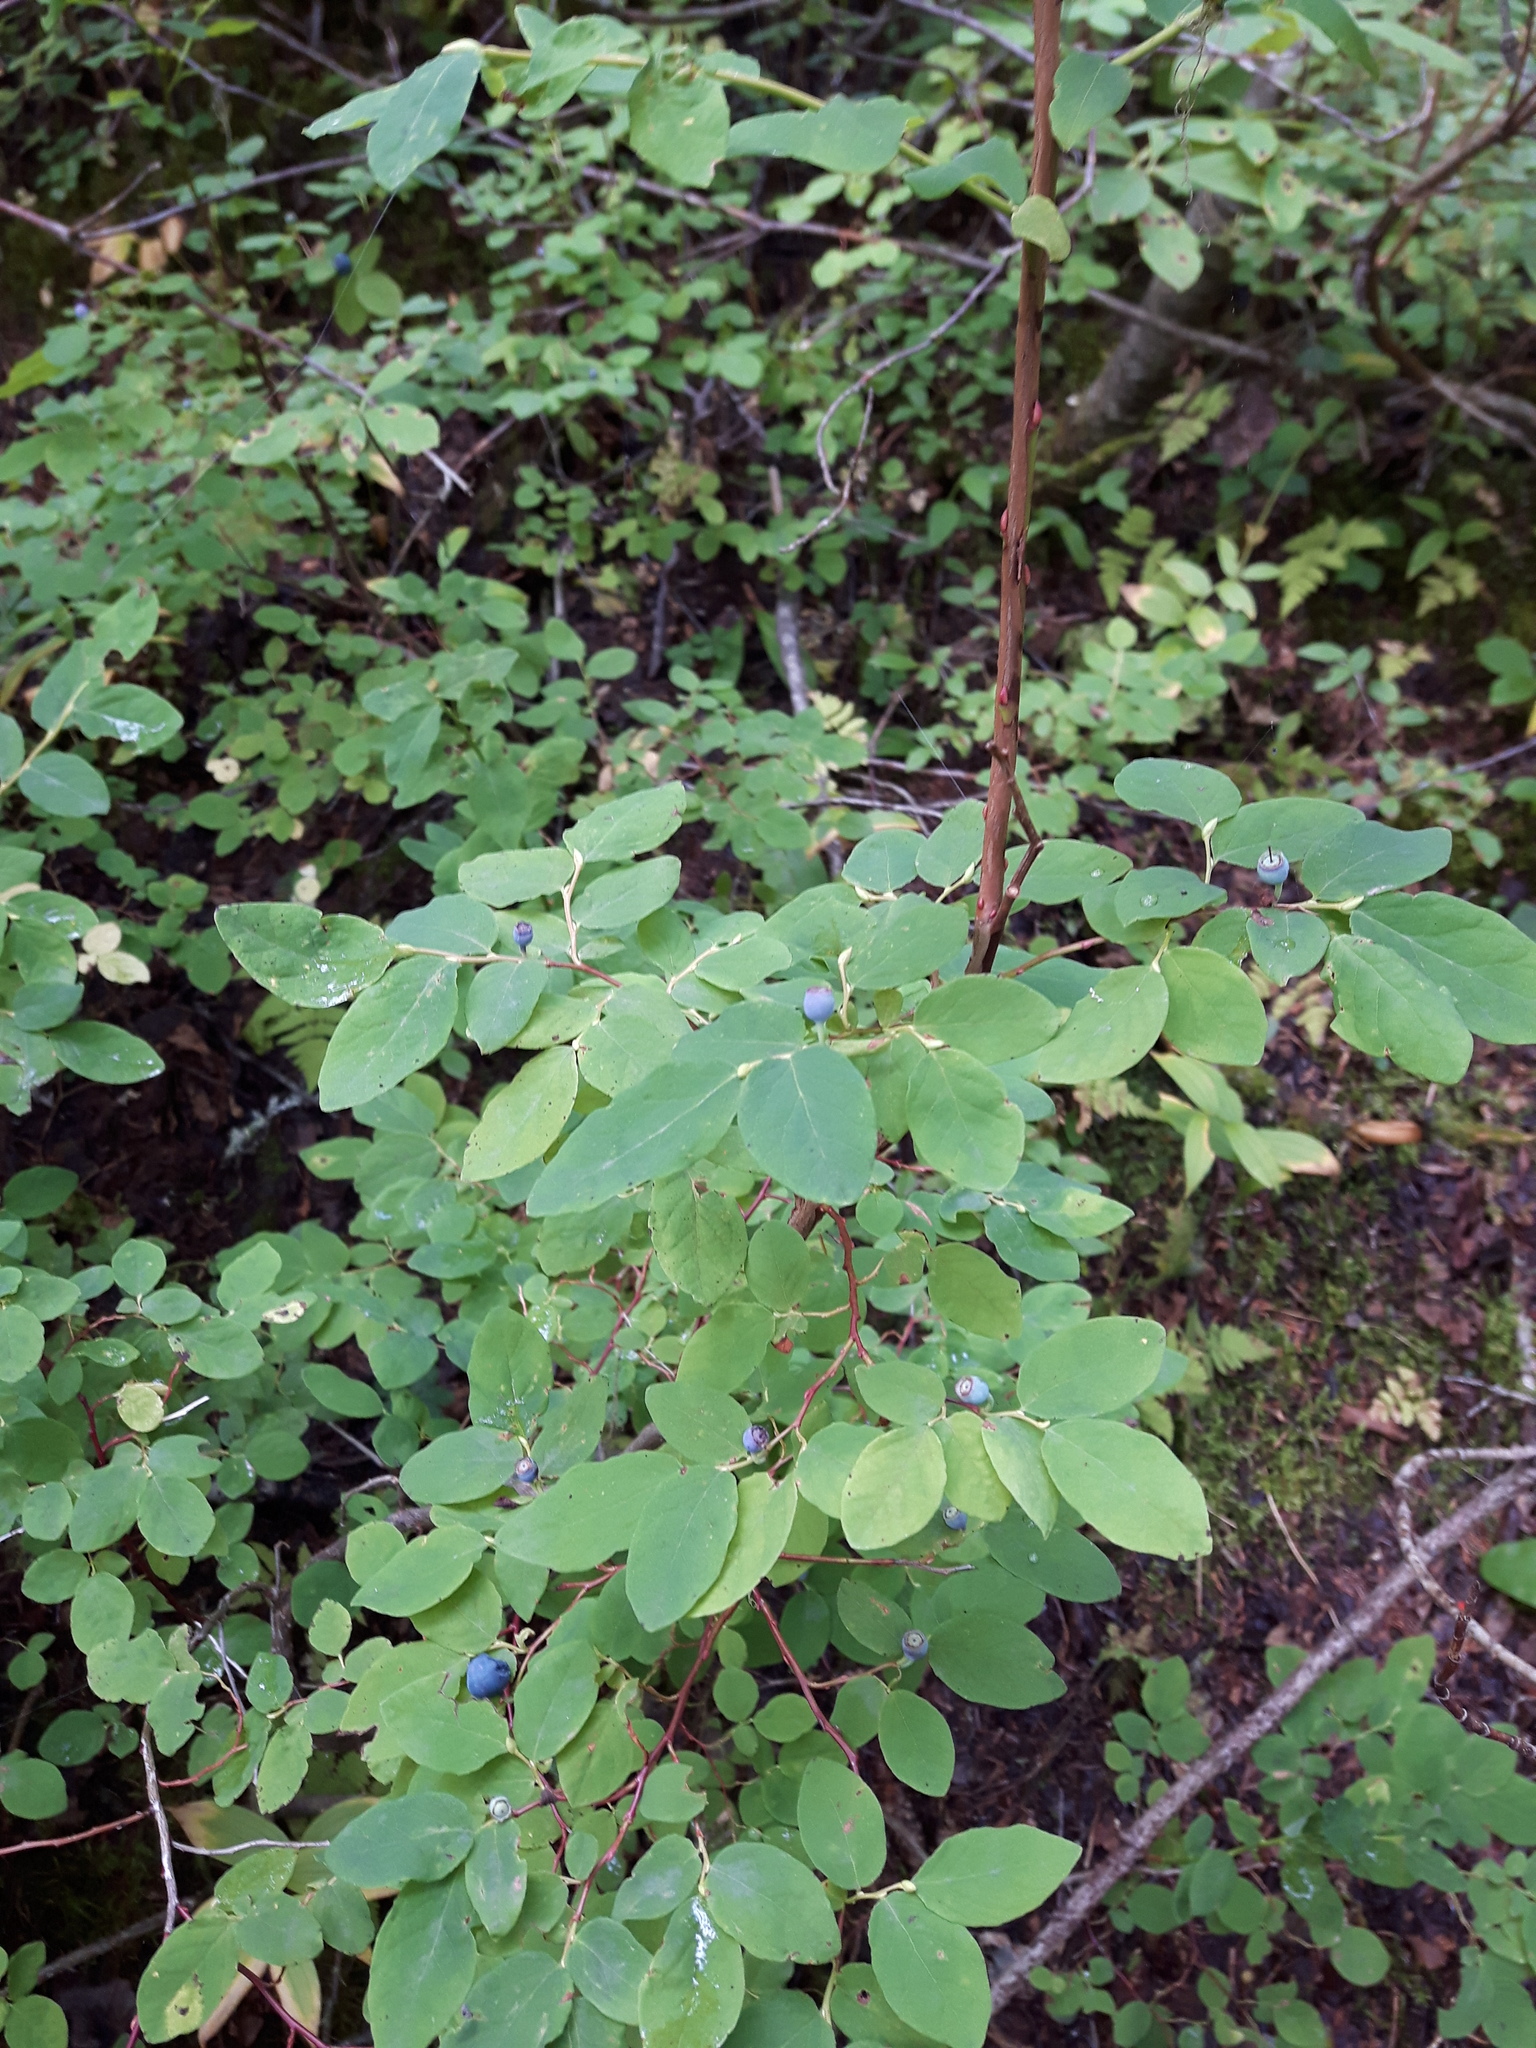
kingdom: Plantae
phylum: Tracheophyta
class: Magnoliopsida
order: Ericales
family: Ericaceae
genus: Vaccinium
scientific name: Vaccinium ovalifolium
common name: Early blueberry
